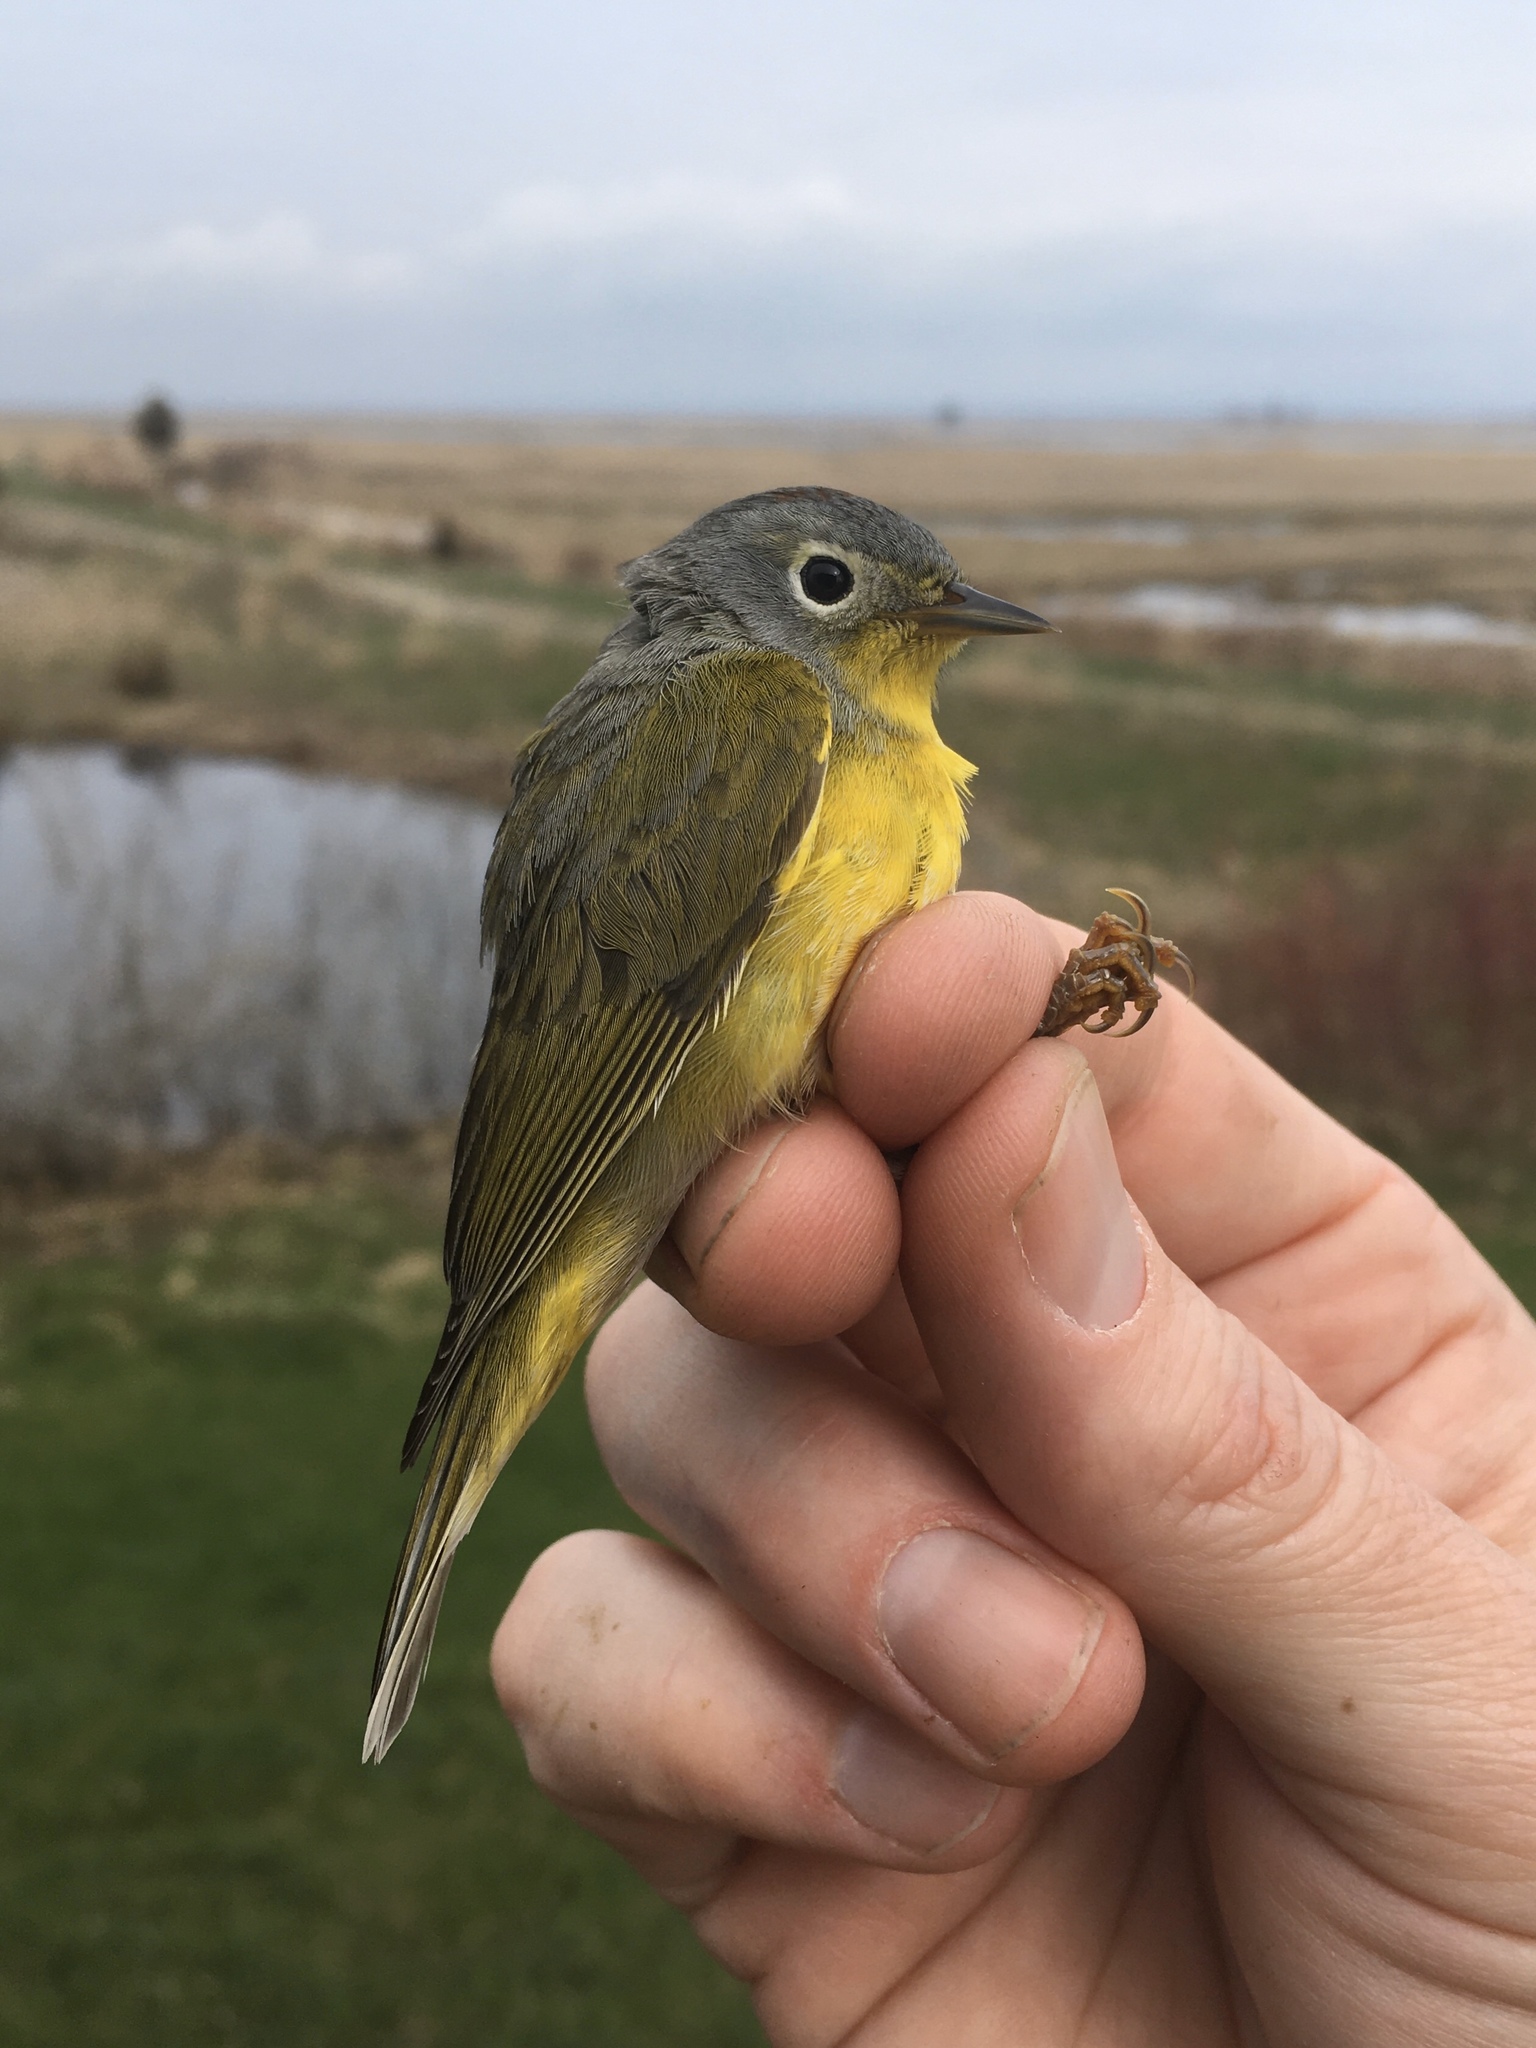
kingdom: Animalia
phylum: Chordata
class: Aves
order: Passeriformes
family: Parulidae
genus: Leiothlypis
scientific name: Leiothlypis ruficapilla
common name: Nashville warbler
